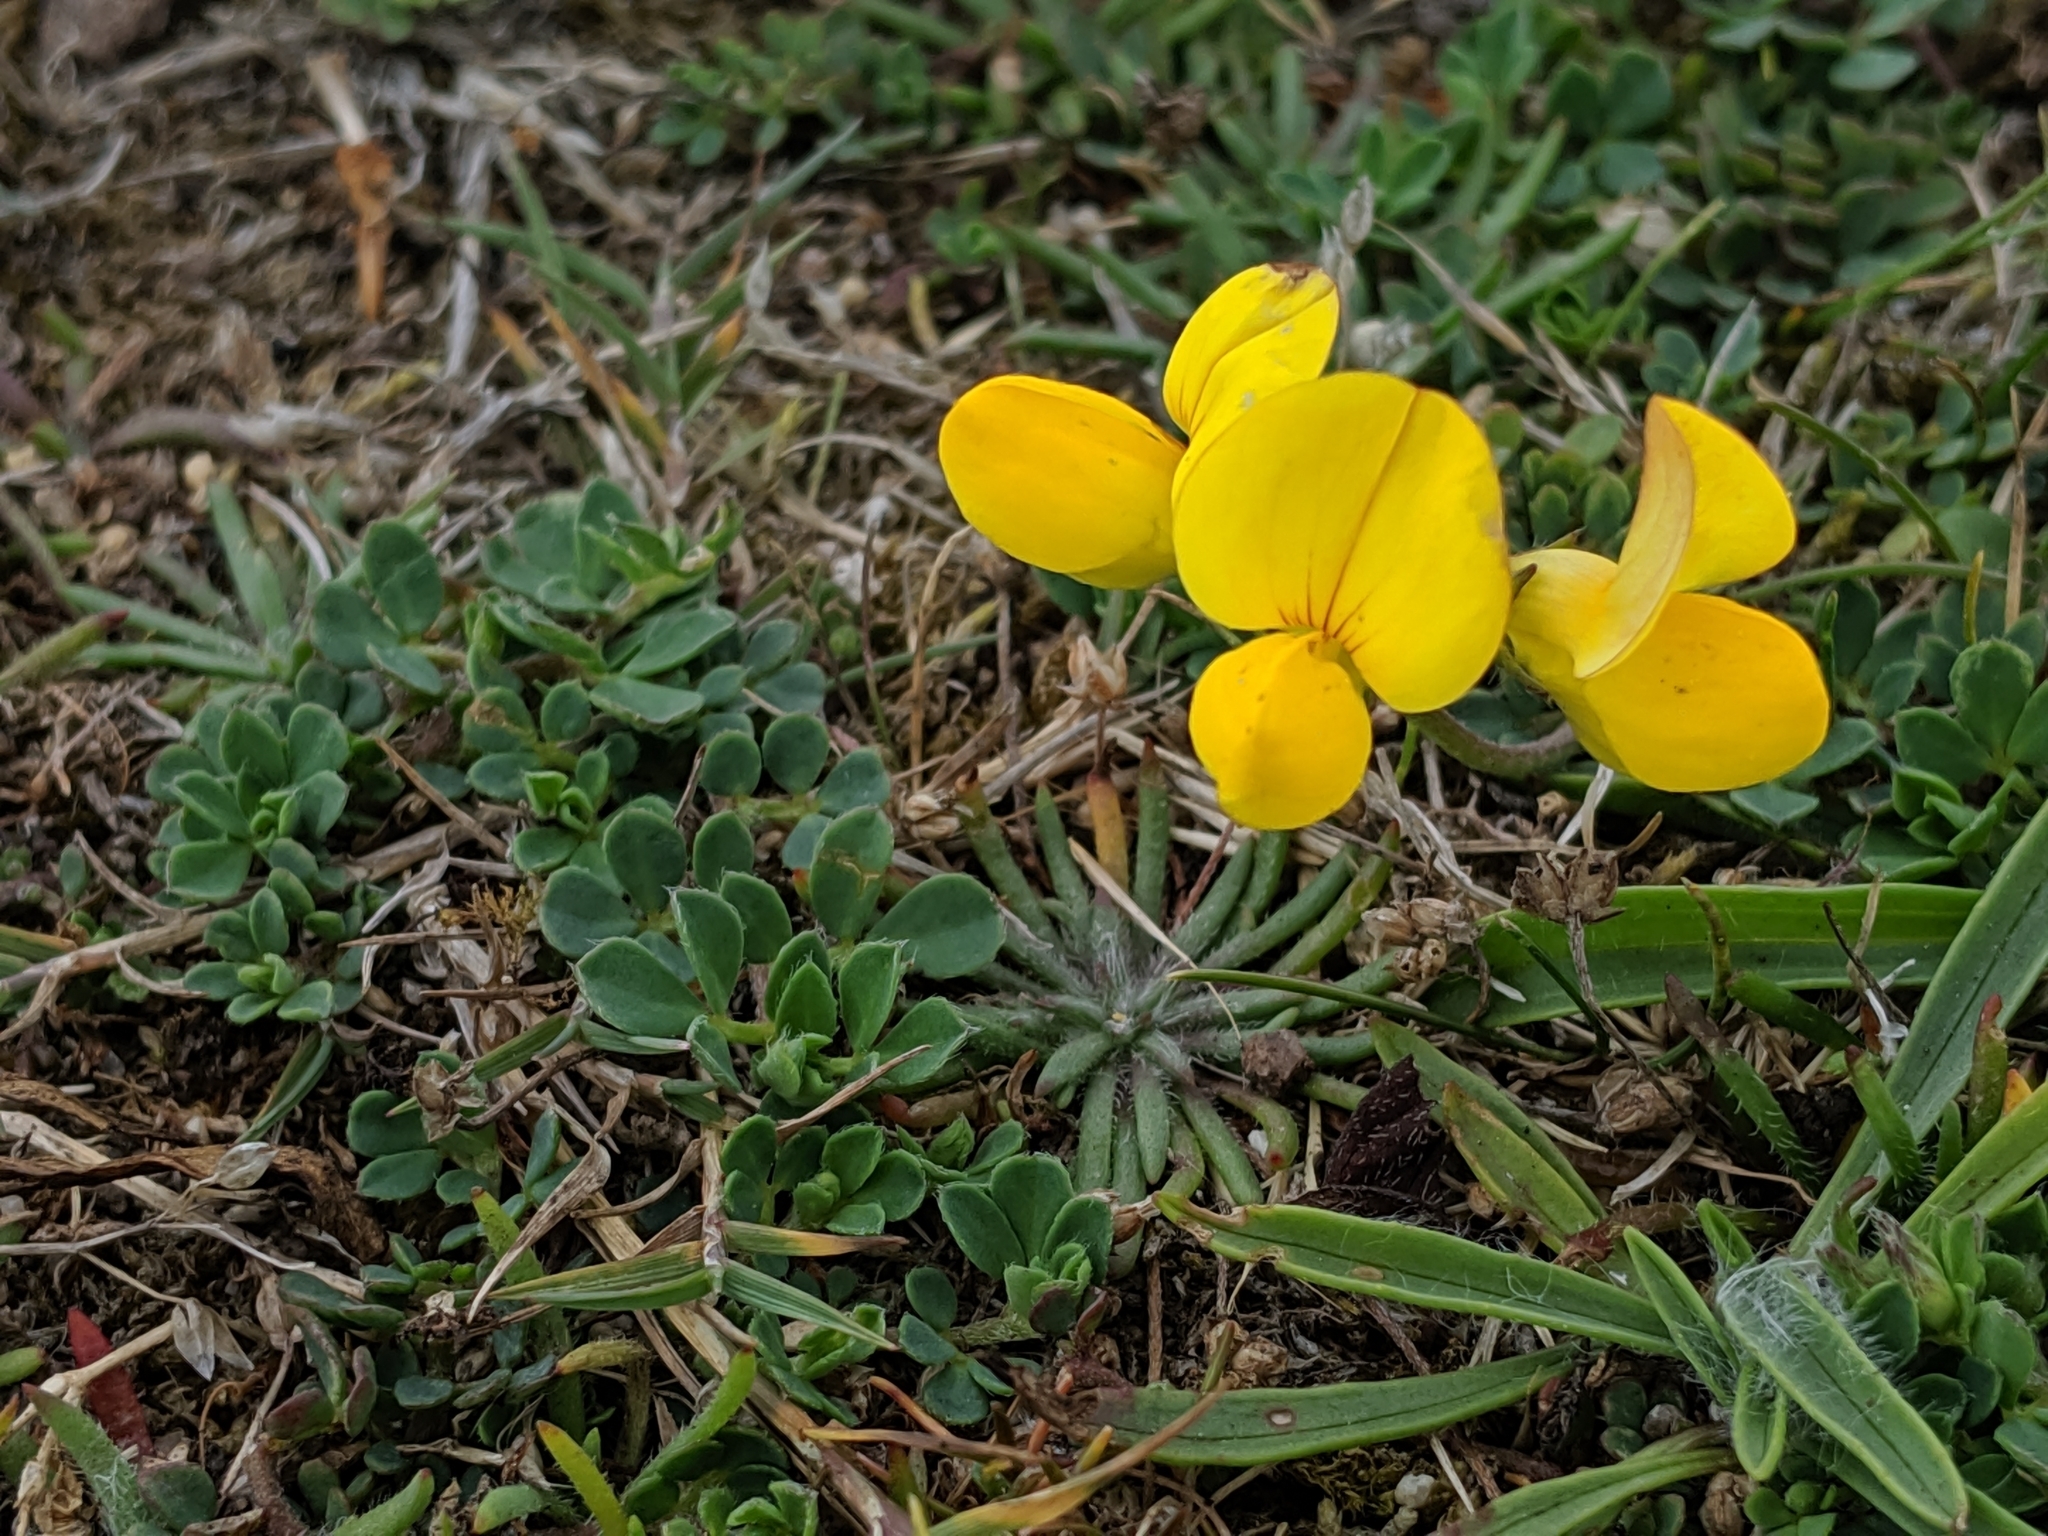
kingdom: Plantae
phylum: Tracheophyta
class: Magnoliopsida
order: Fabales
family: Fabaceae
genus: Lotus
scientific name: Lotus corniculatus
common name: Common bird's-foot-trefoil
